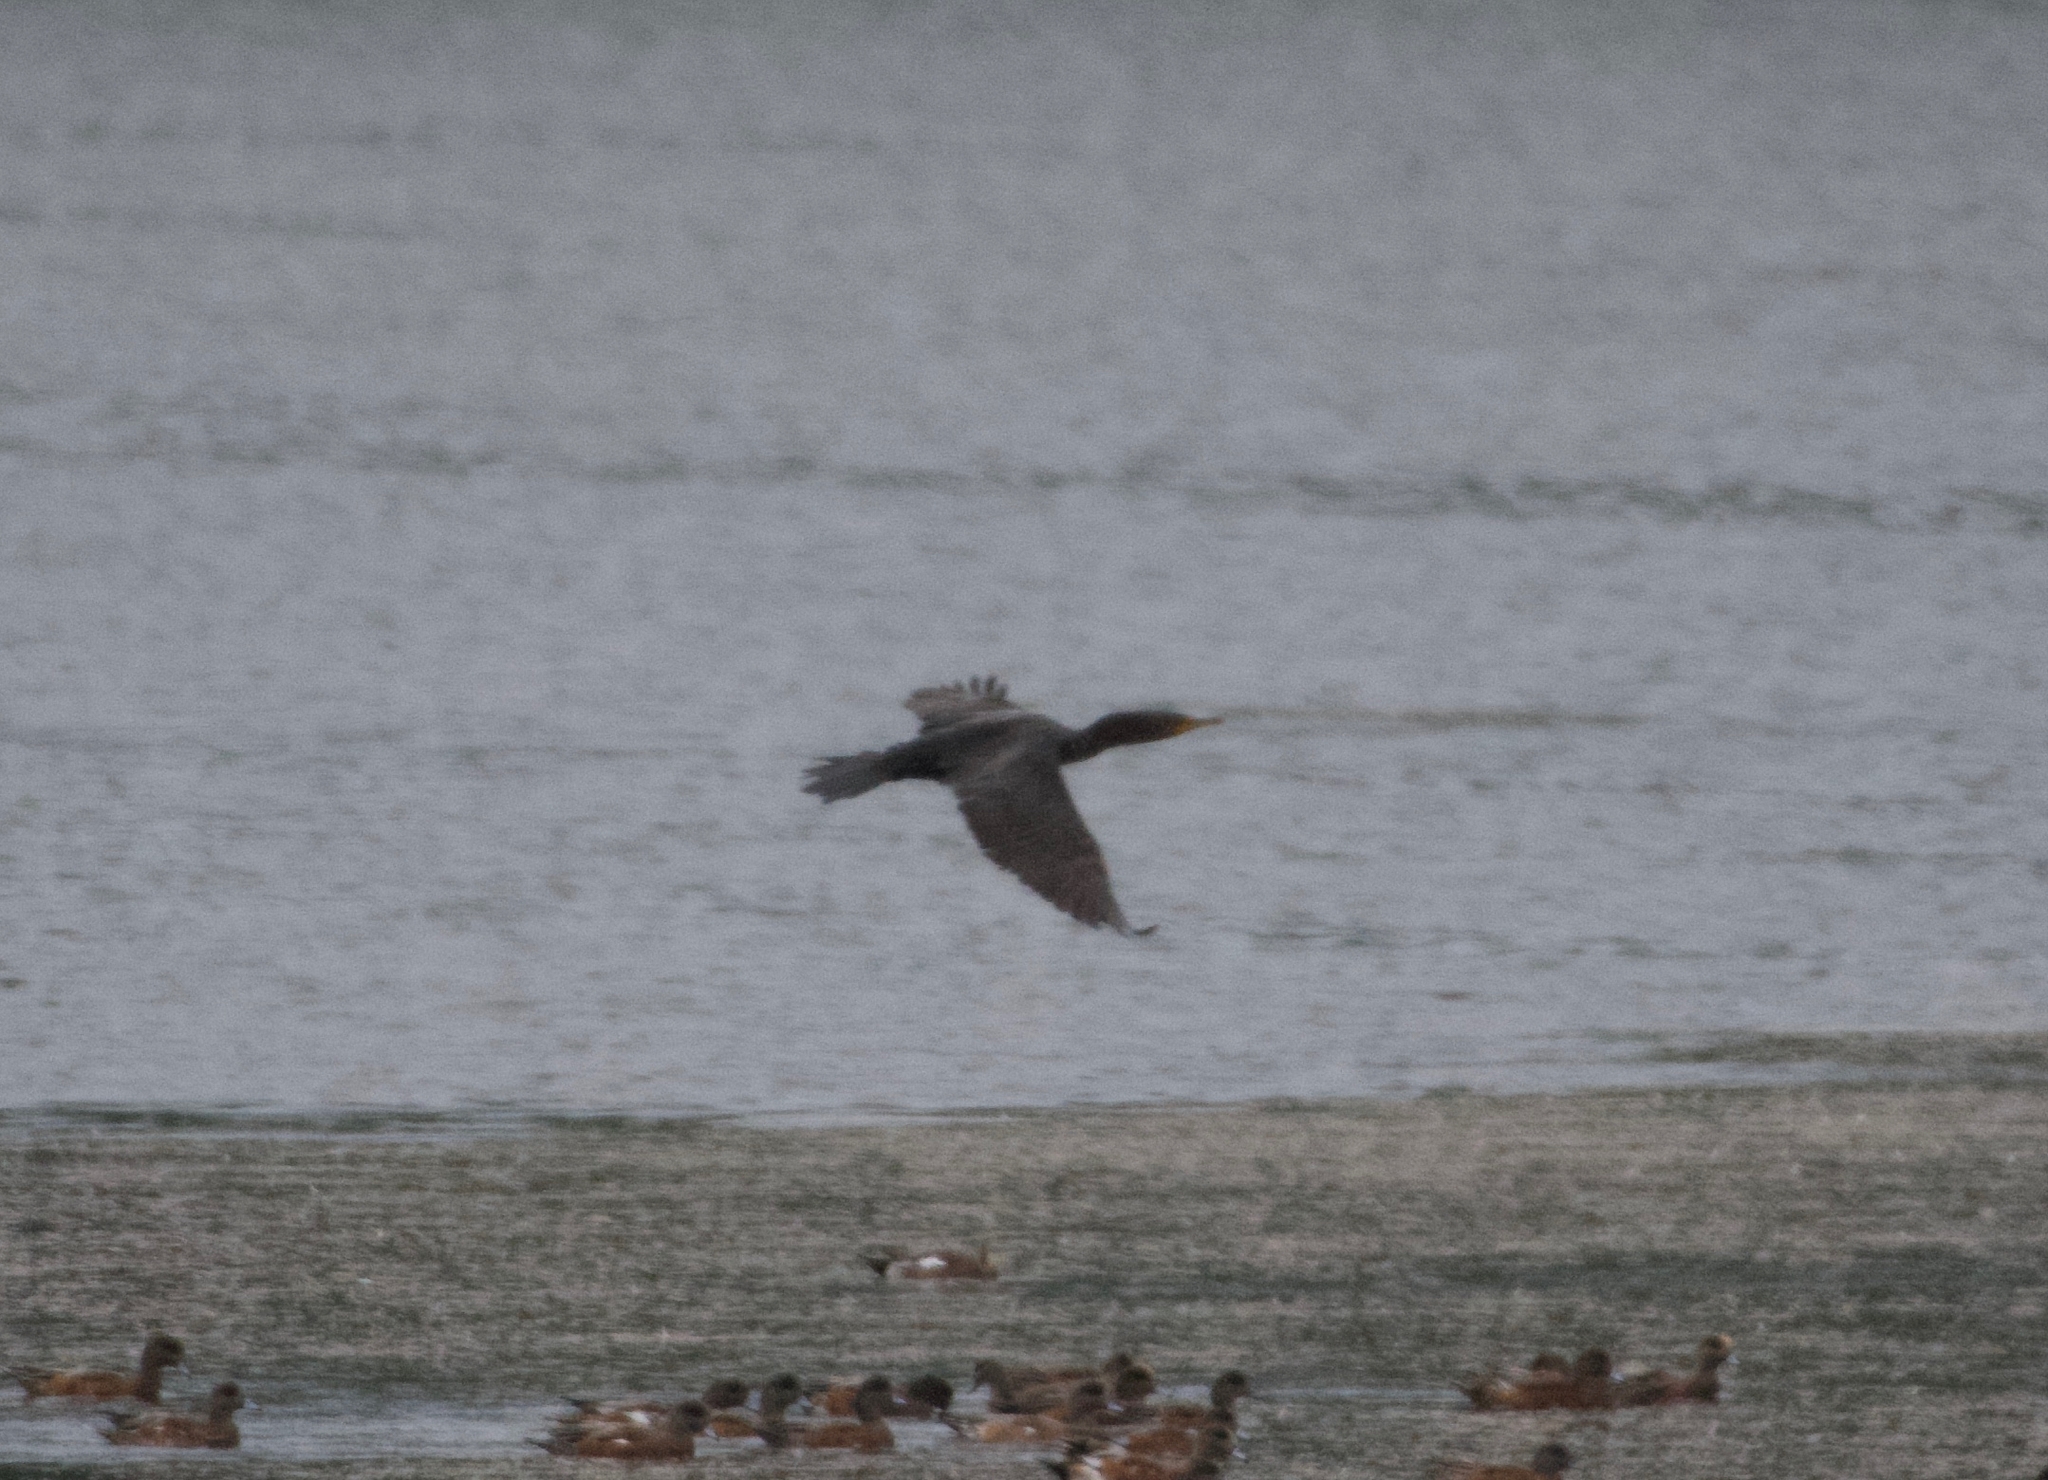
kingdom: Animalia
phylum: Chordata
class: Aves
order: Suliformes
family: Phalacrocoracidae
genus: Phalacrocorax
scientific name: Phalacrocorax auritus
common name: Double-crested cormorant
